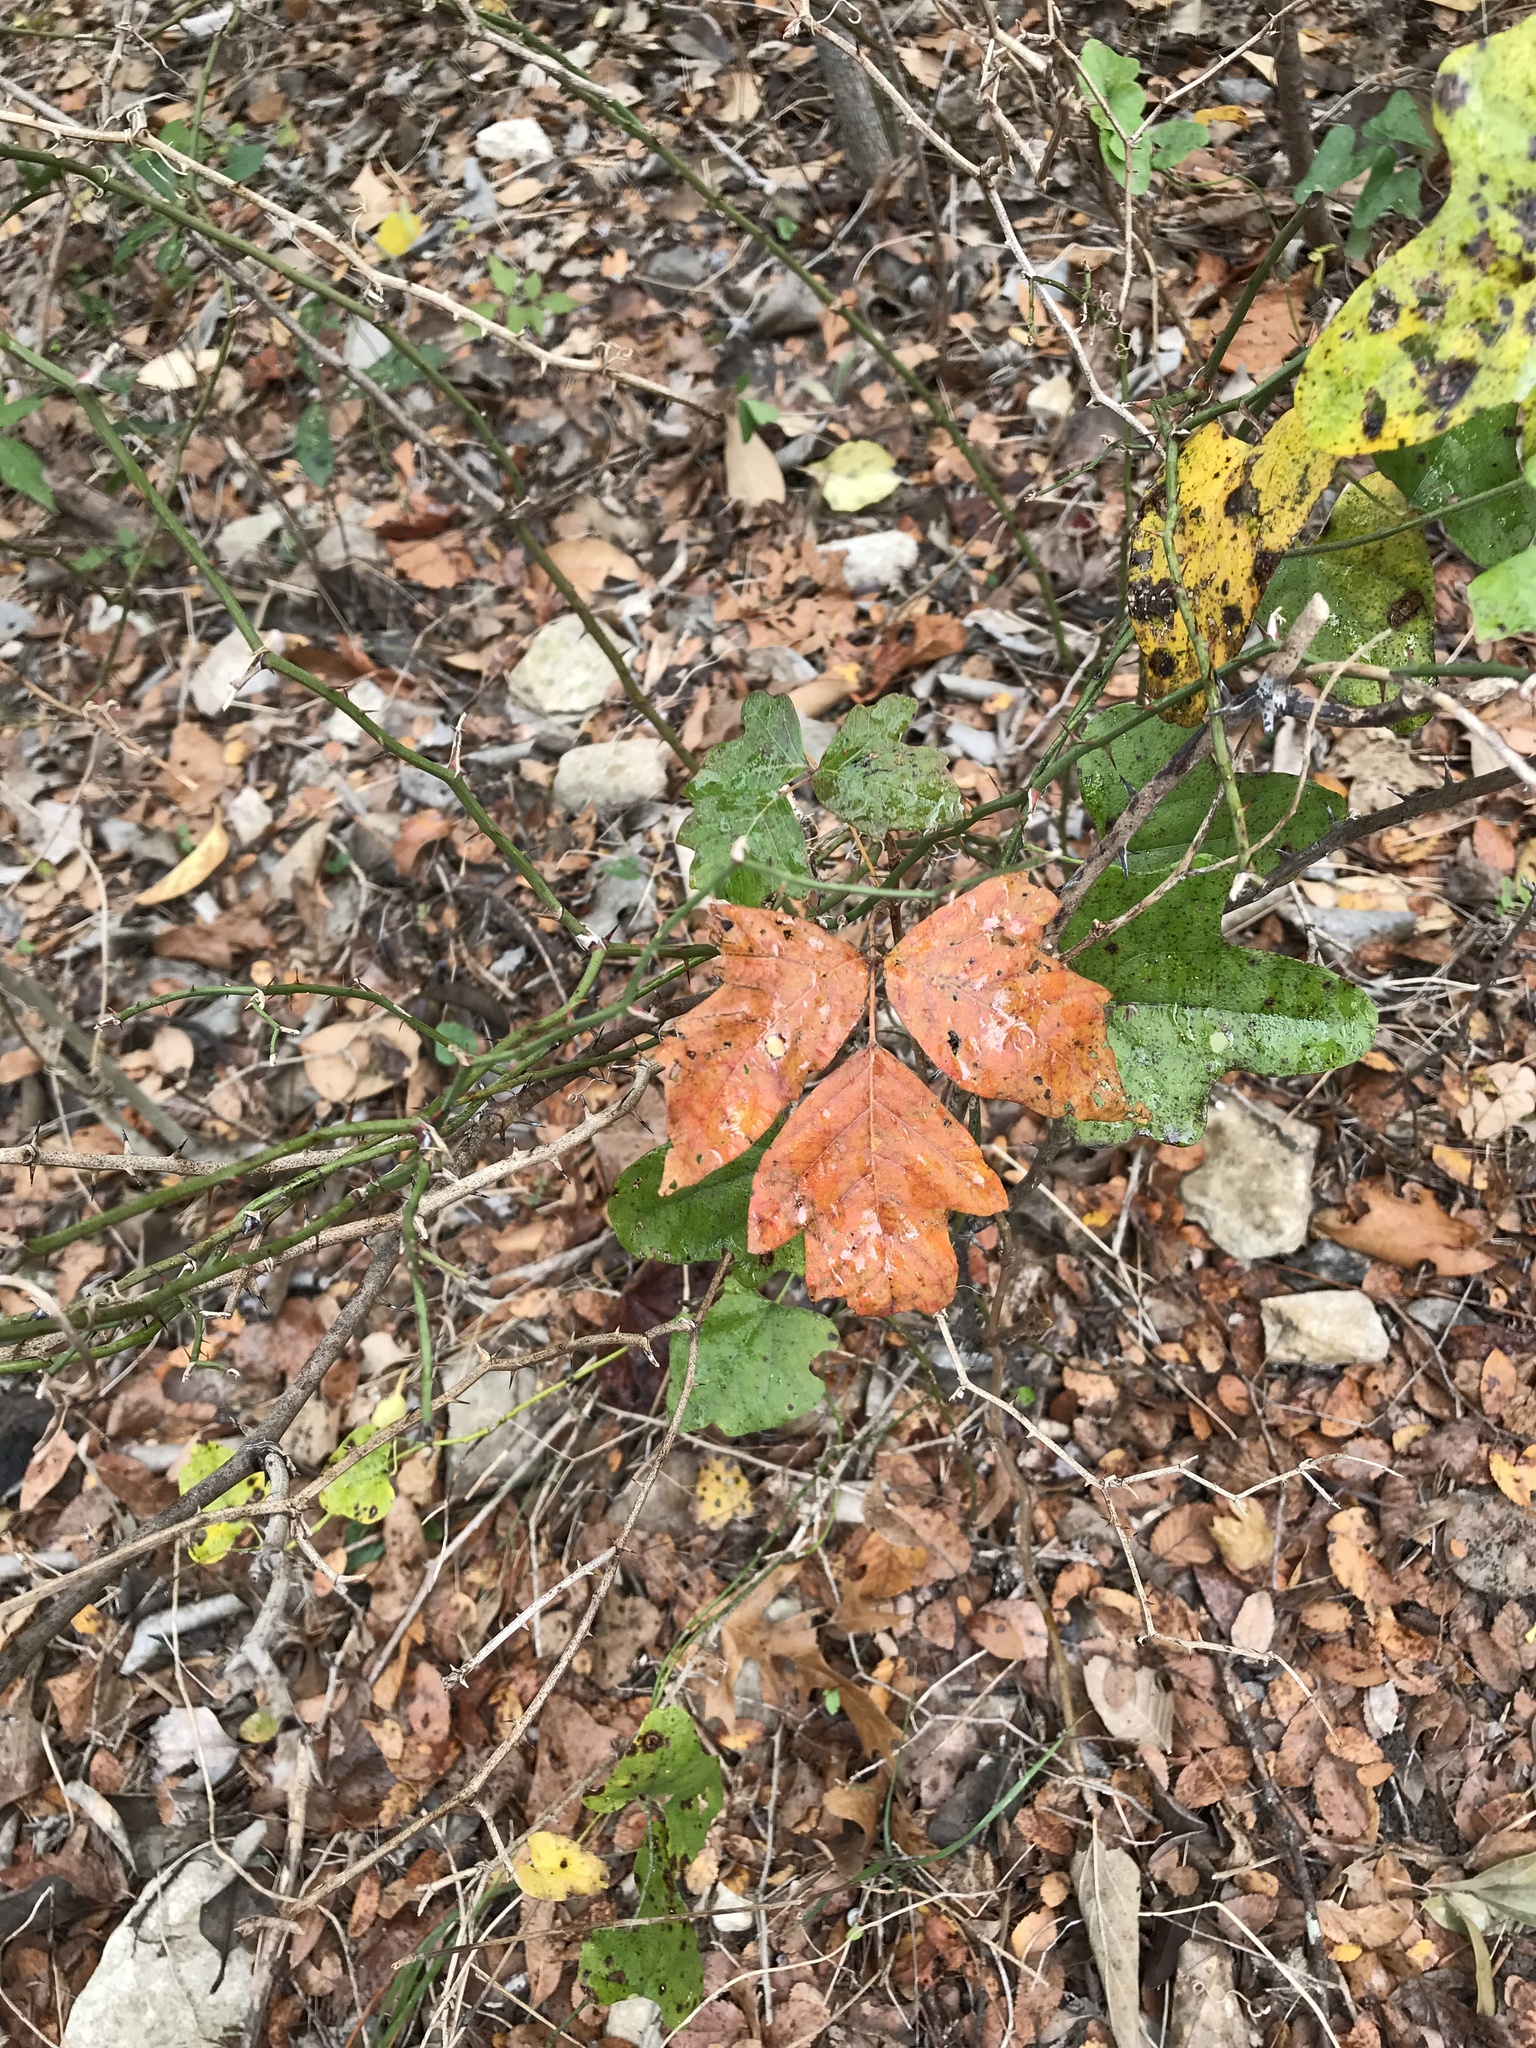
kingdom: Plantae
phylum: Tracheophyta
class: Magnoliopsida
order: Sapindales
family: Anacardiaceae
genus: Toxicodendron
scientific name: Toxicodendron radicans
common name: Poison ivy
